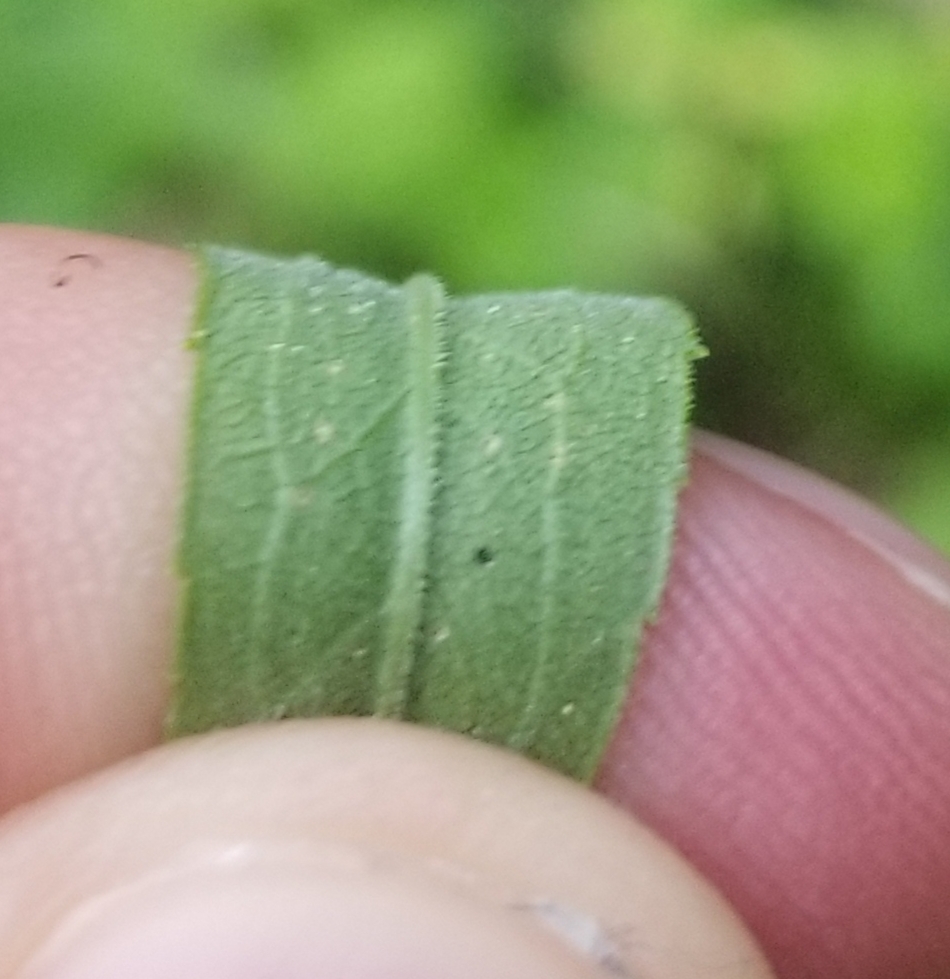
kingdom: Plantae
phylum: Tracheophyta
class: Magnoliopsida
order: Asterales
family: Asteraceae
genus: Solidago
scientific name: Solidago altissima
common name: Late goldenrod
